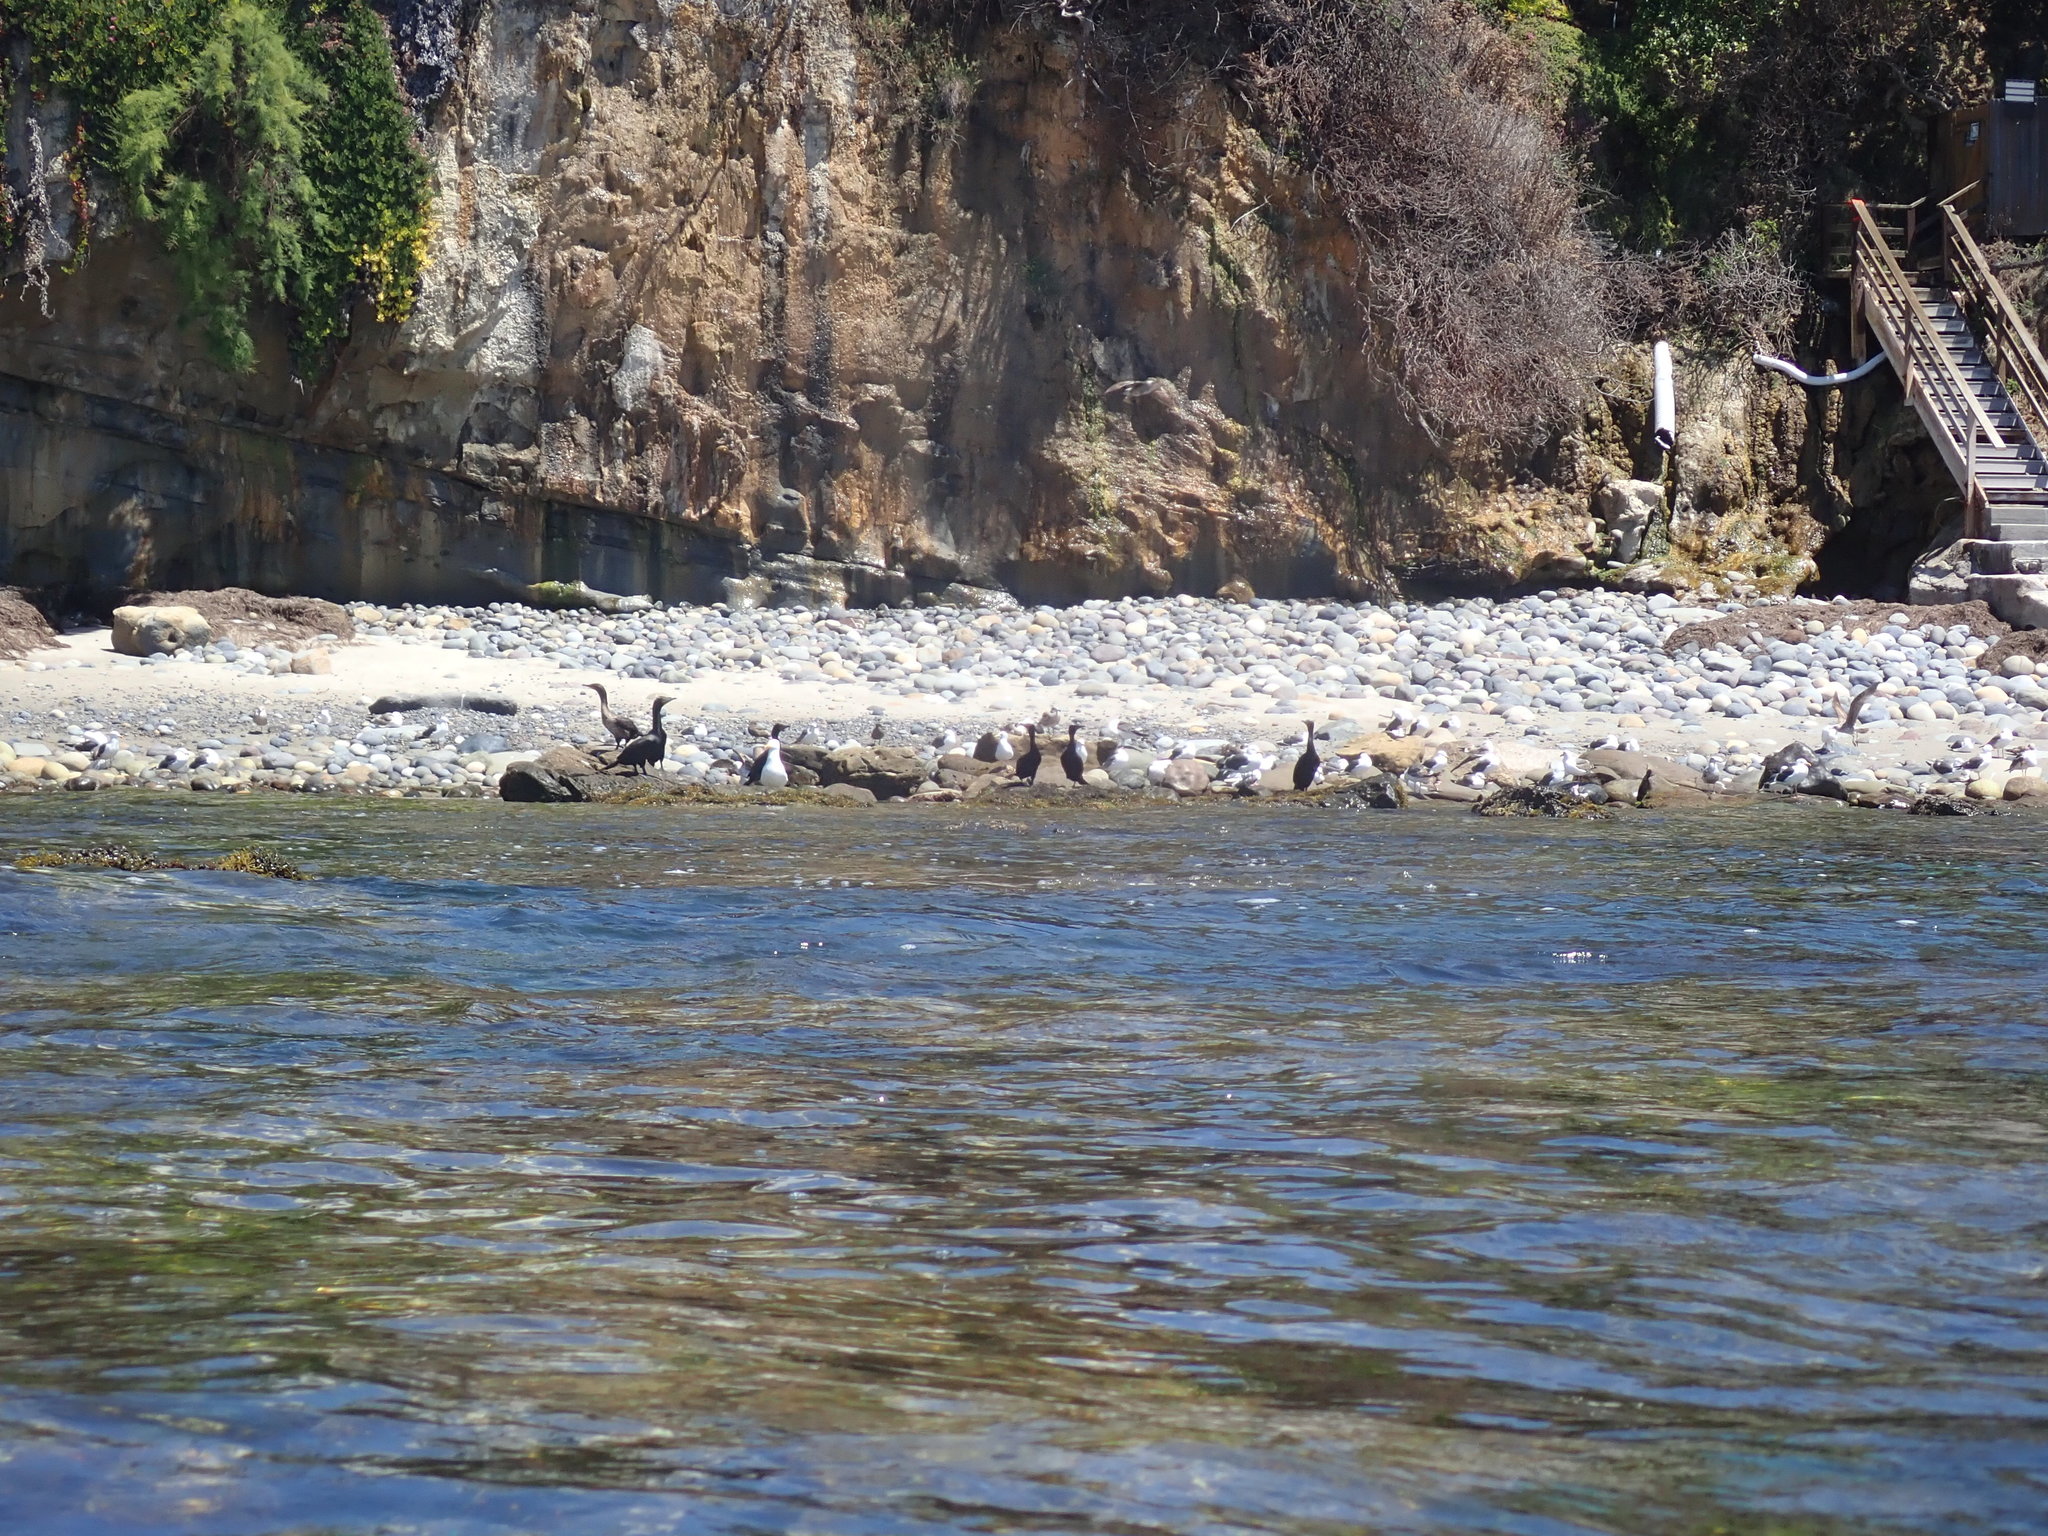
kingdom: Plantae
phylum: Chlorophyta
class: Ulvophyceae
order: Cladophorales
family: Cladophoraceae
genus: Chaetomorpha
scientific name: Chaetomorpha spiralis
